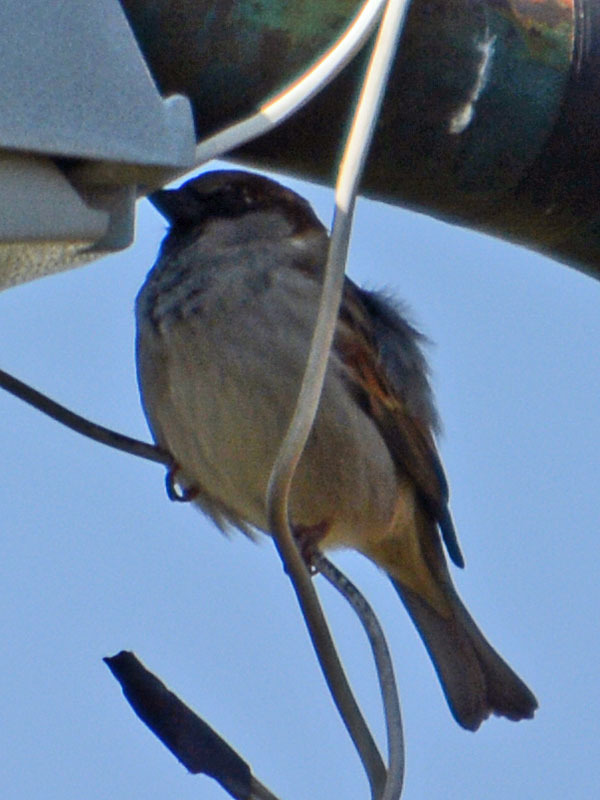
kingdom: Animalia
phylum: Chordata
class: Aves
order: Passeriformes
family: Passeridae
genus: Passer
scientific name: Passer domesticus
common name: House sparrow
